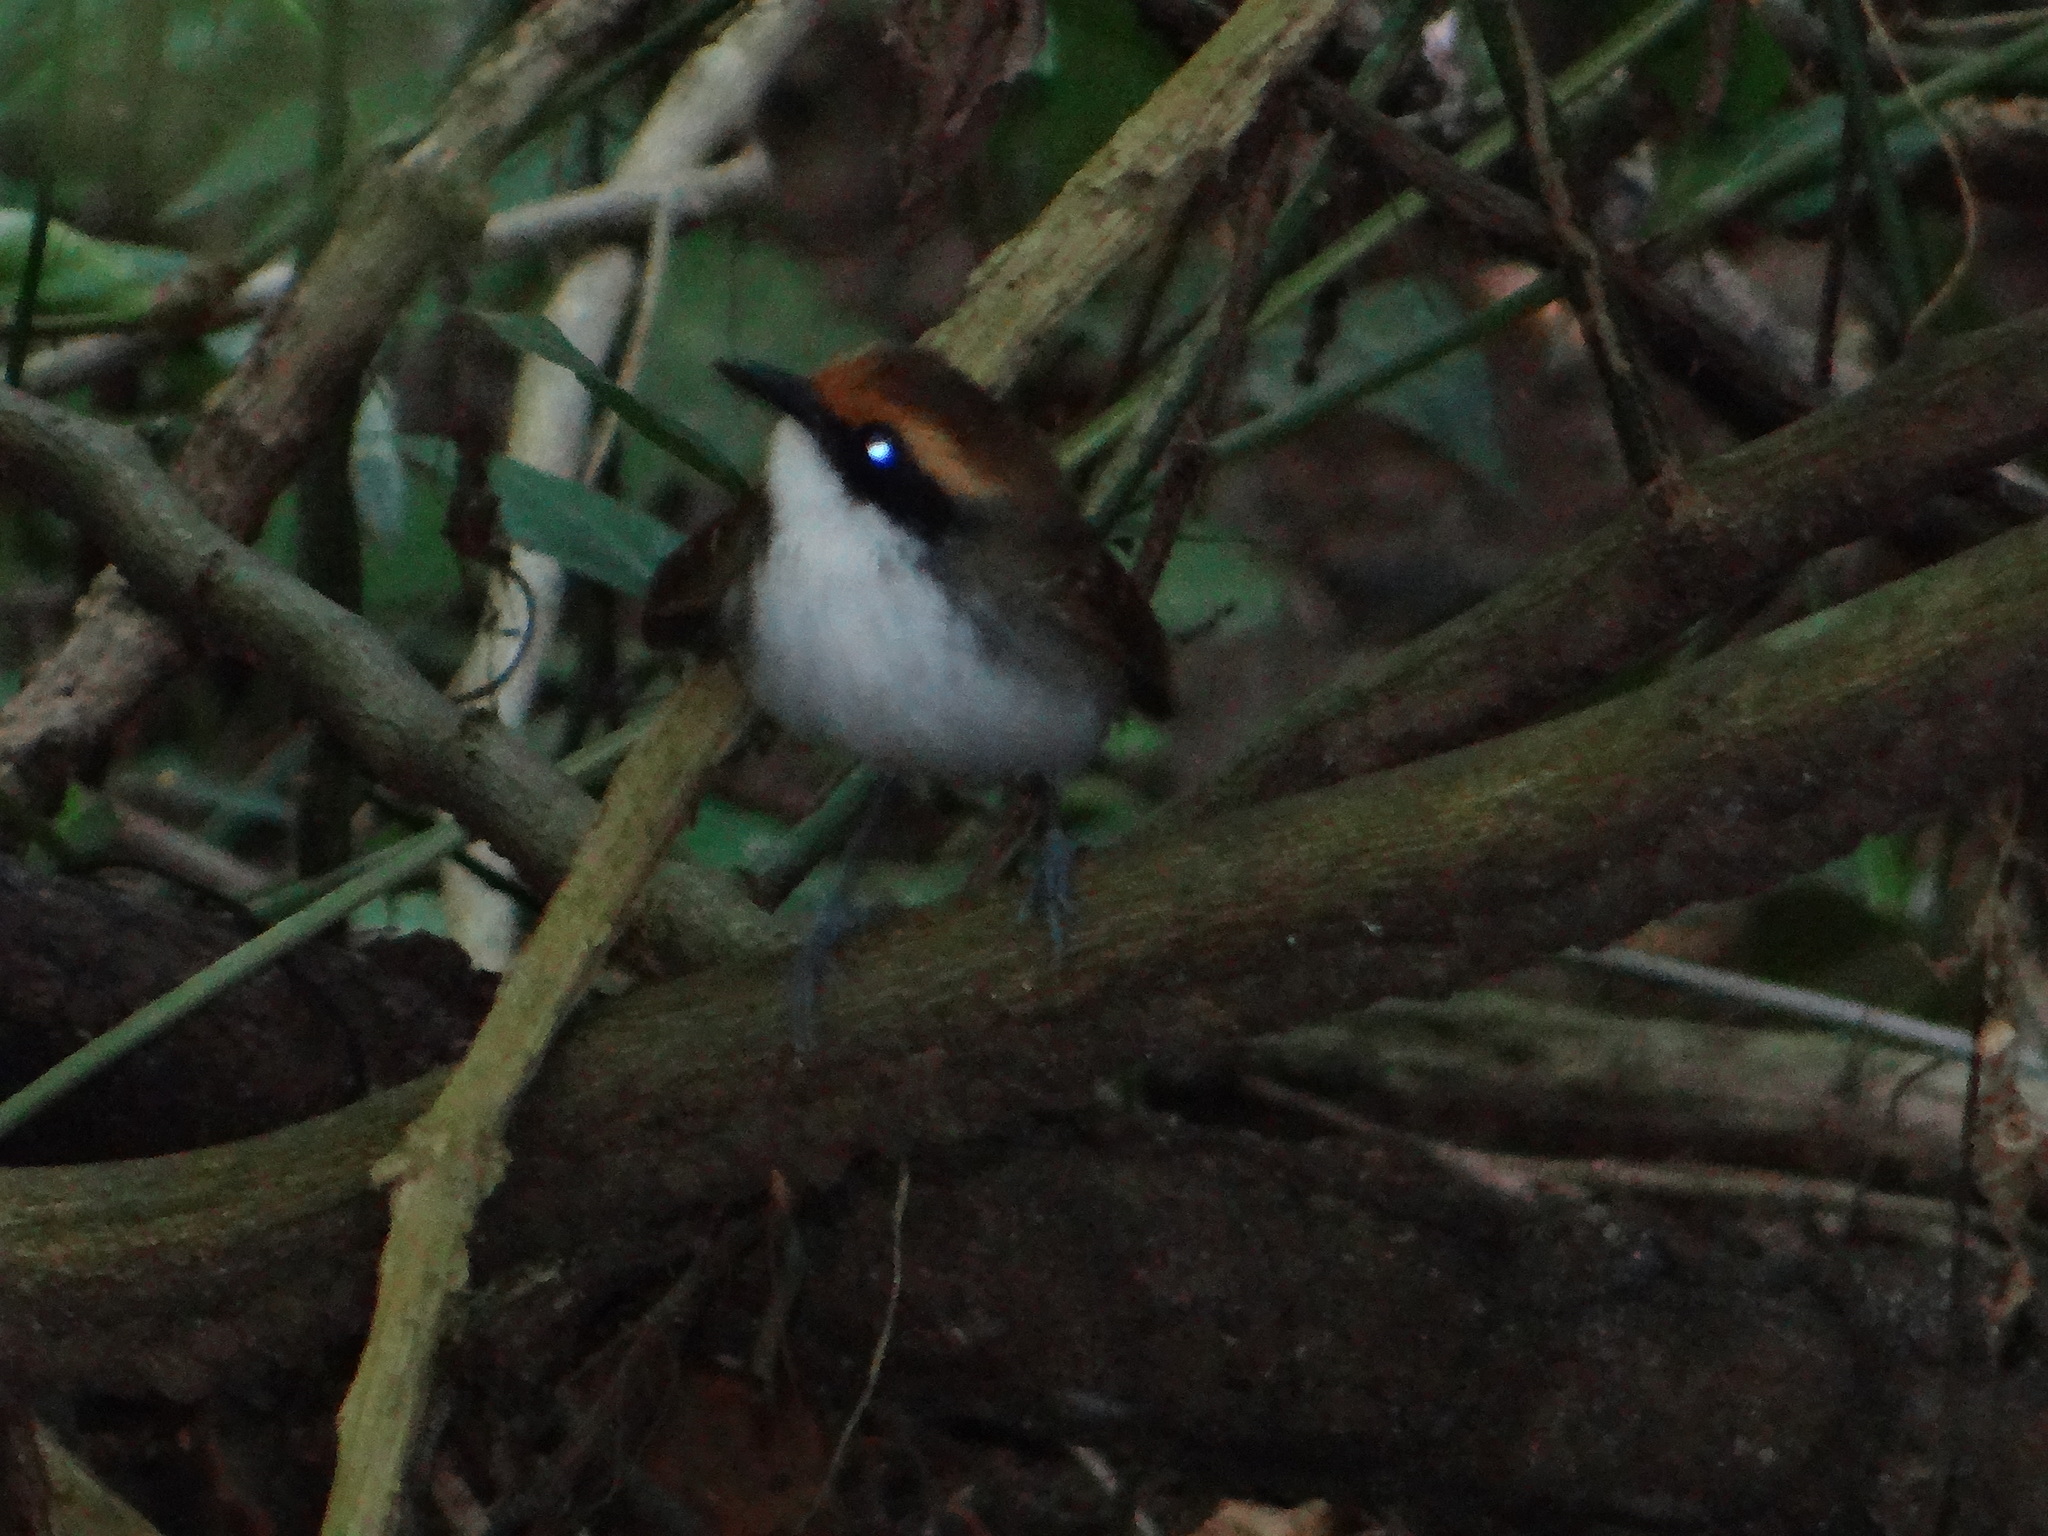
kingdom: Animalia
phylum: Chordata
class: Aves
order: Passeriformes
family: Thamnophilidae
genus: Myrmoborus
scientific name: Myrmoborus leucophrys
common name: White-browed antbird
